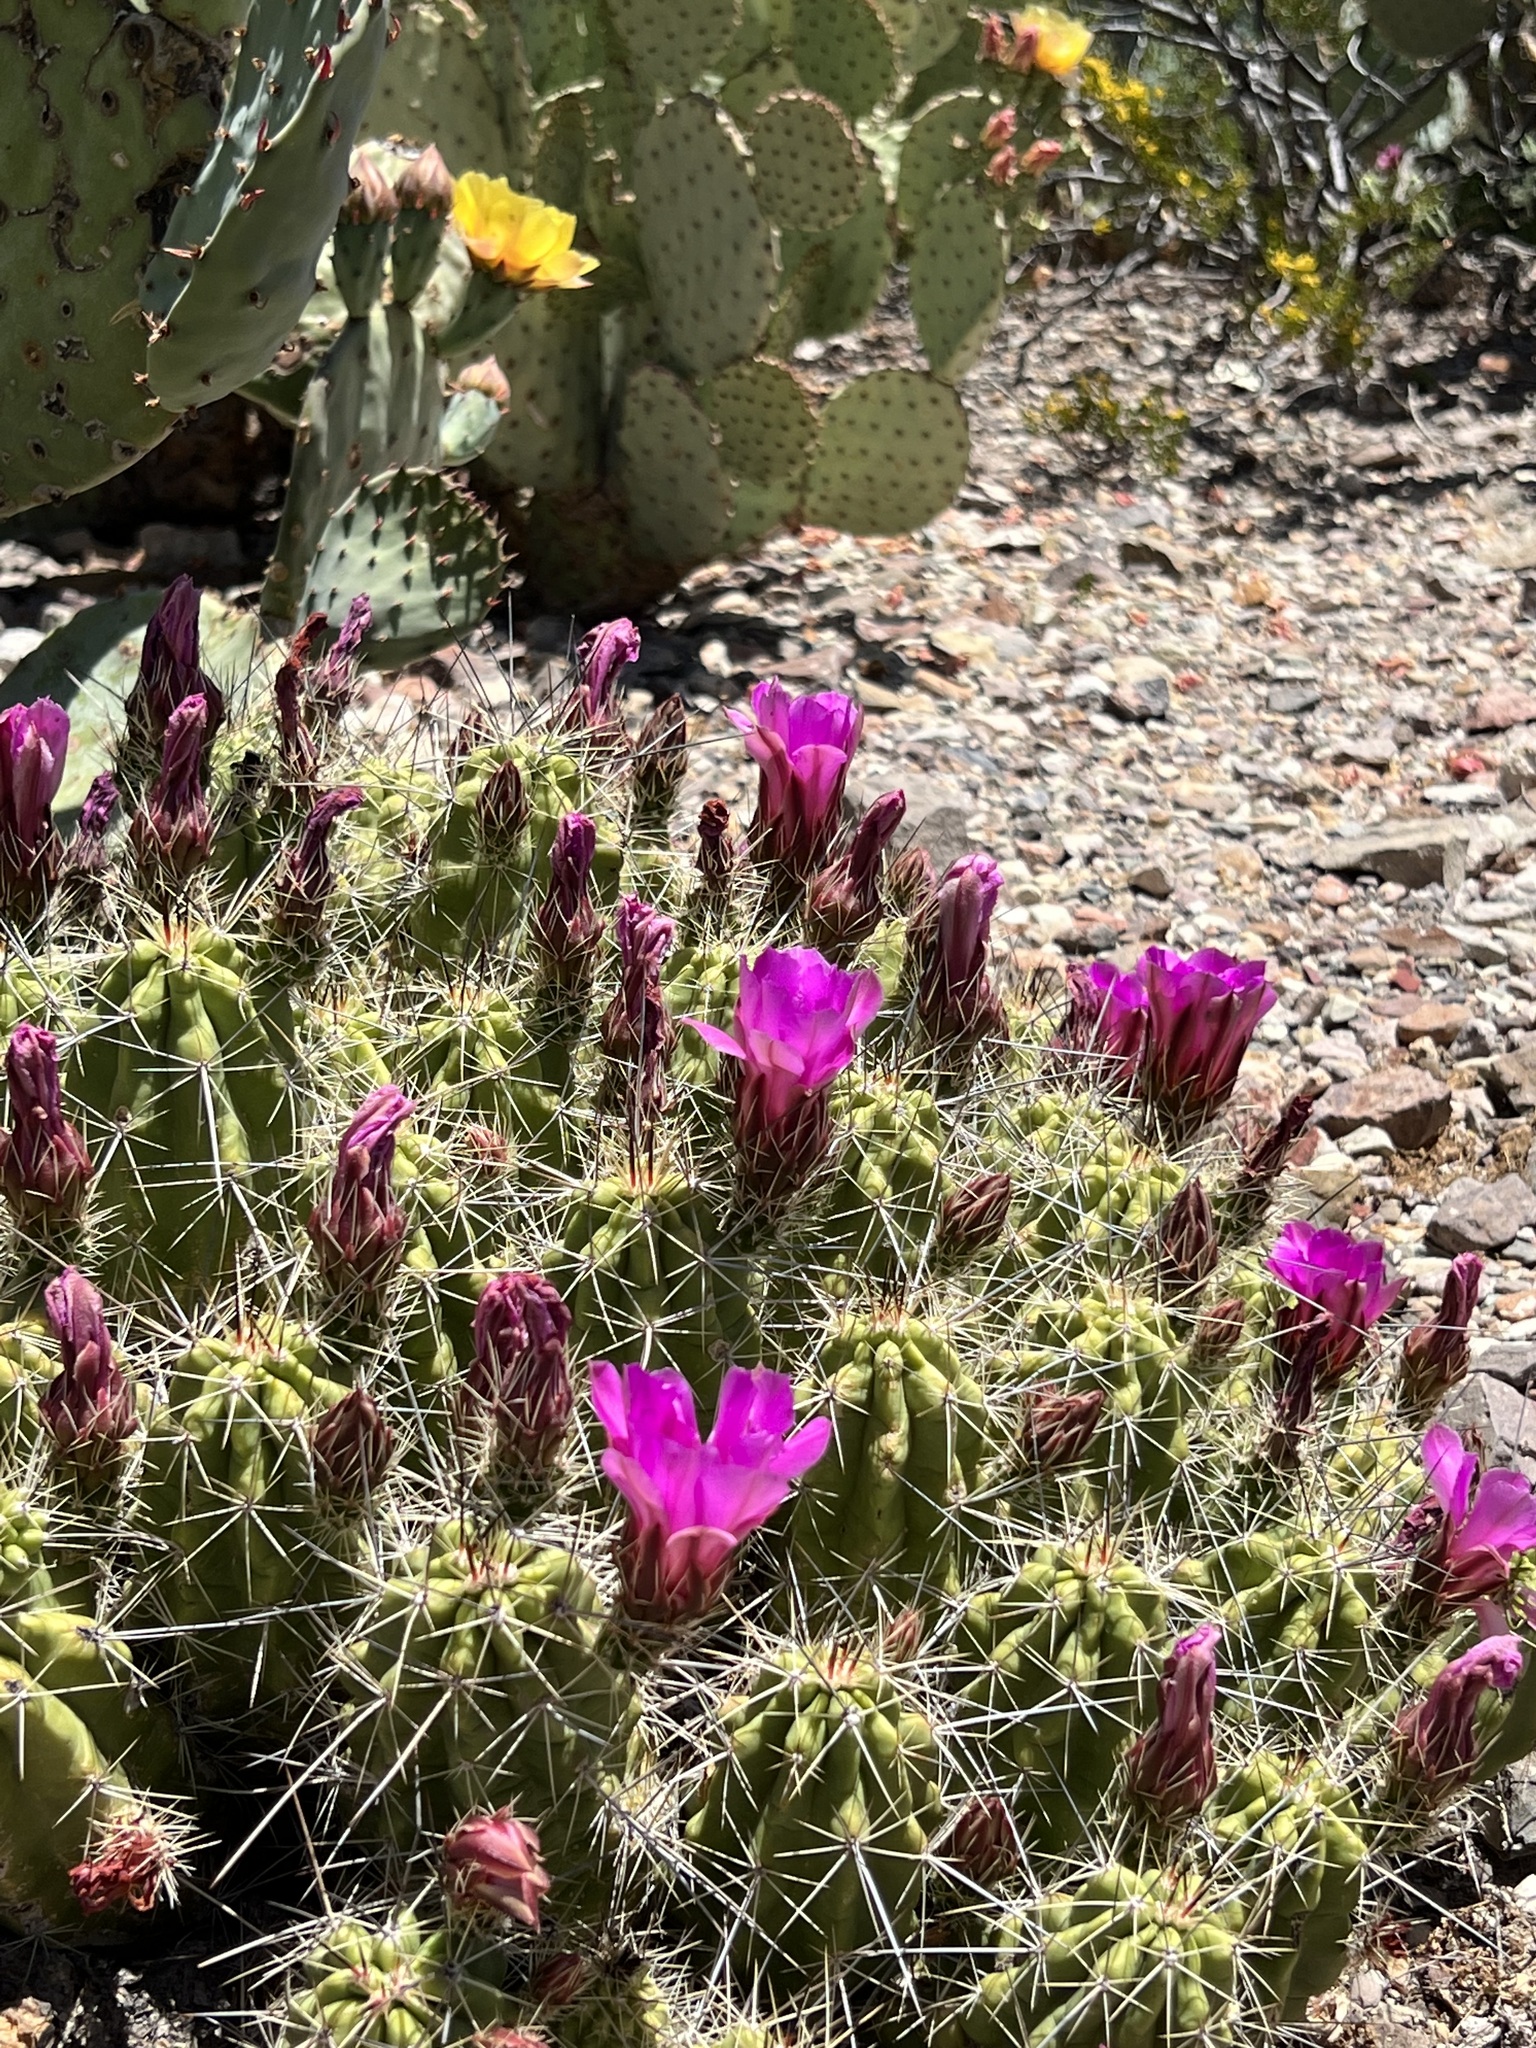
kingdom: Plantae
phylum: Tracheophyta
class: Magnoliopsida
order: Caryophyllales
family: Cactaceae
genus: Echinocereus
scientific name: Echinocereus enneacanthus
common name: Pitaya
